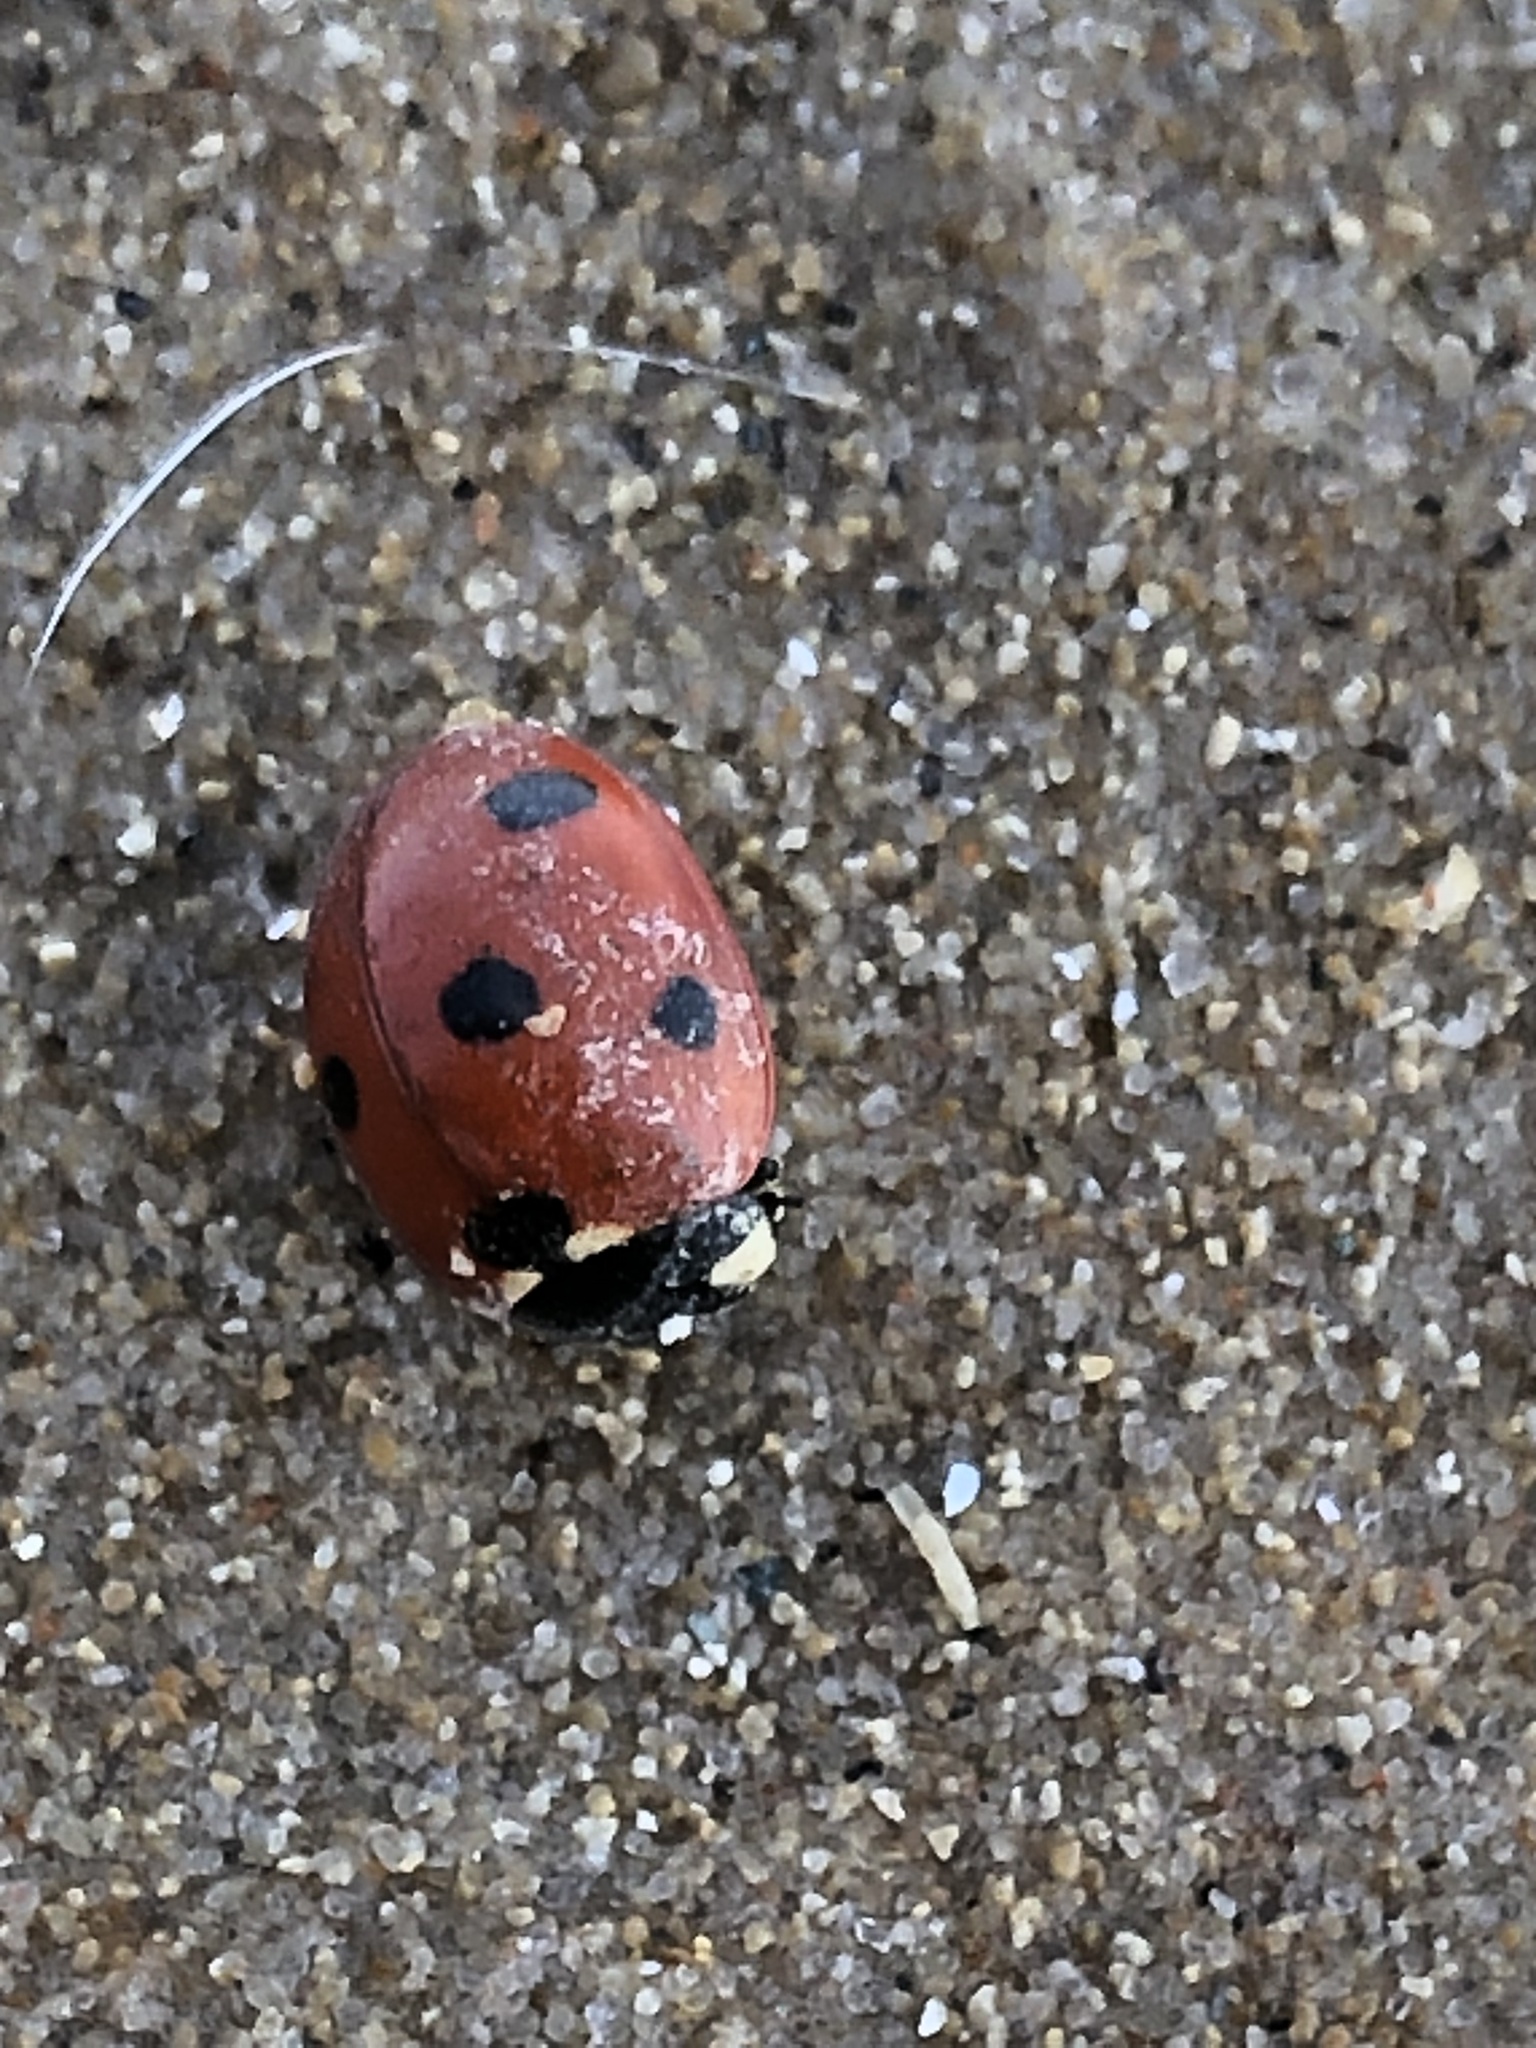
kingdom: Animalia
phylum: Arthropoda
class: Insecta
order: Coleoptera
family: Coccinellidae
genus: Coccinella
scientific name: Coccinella septempunctata
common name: Sevenspotted lady beetle
